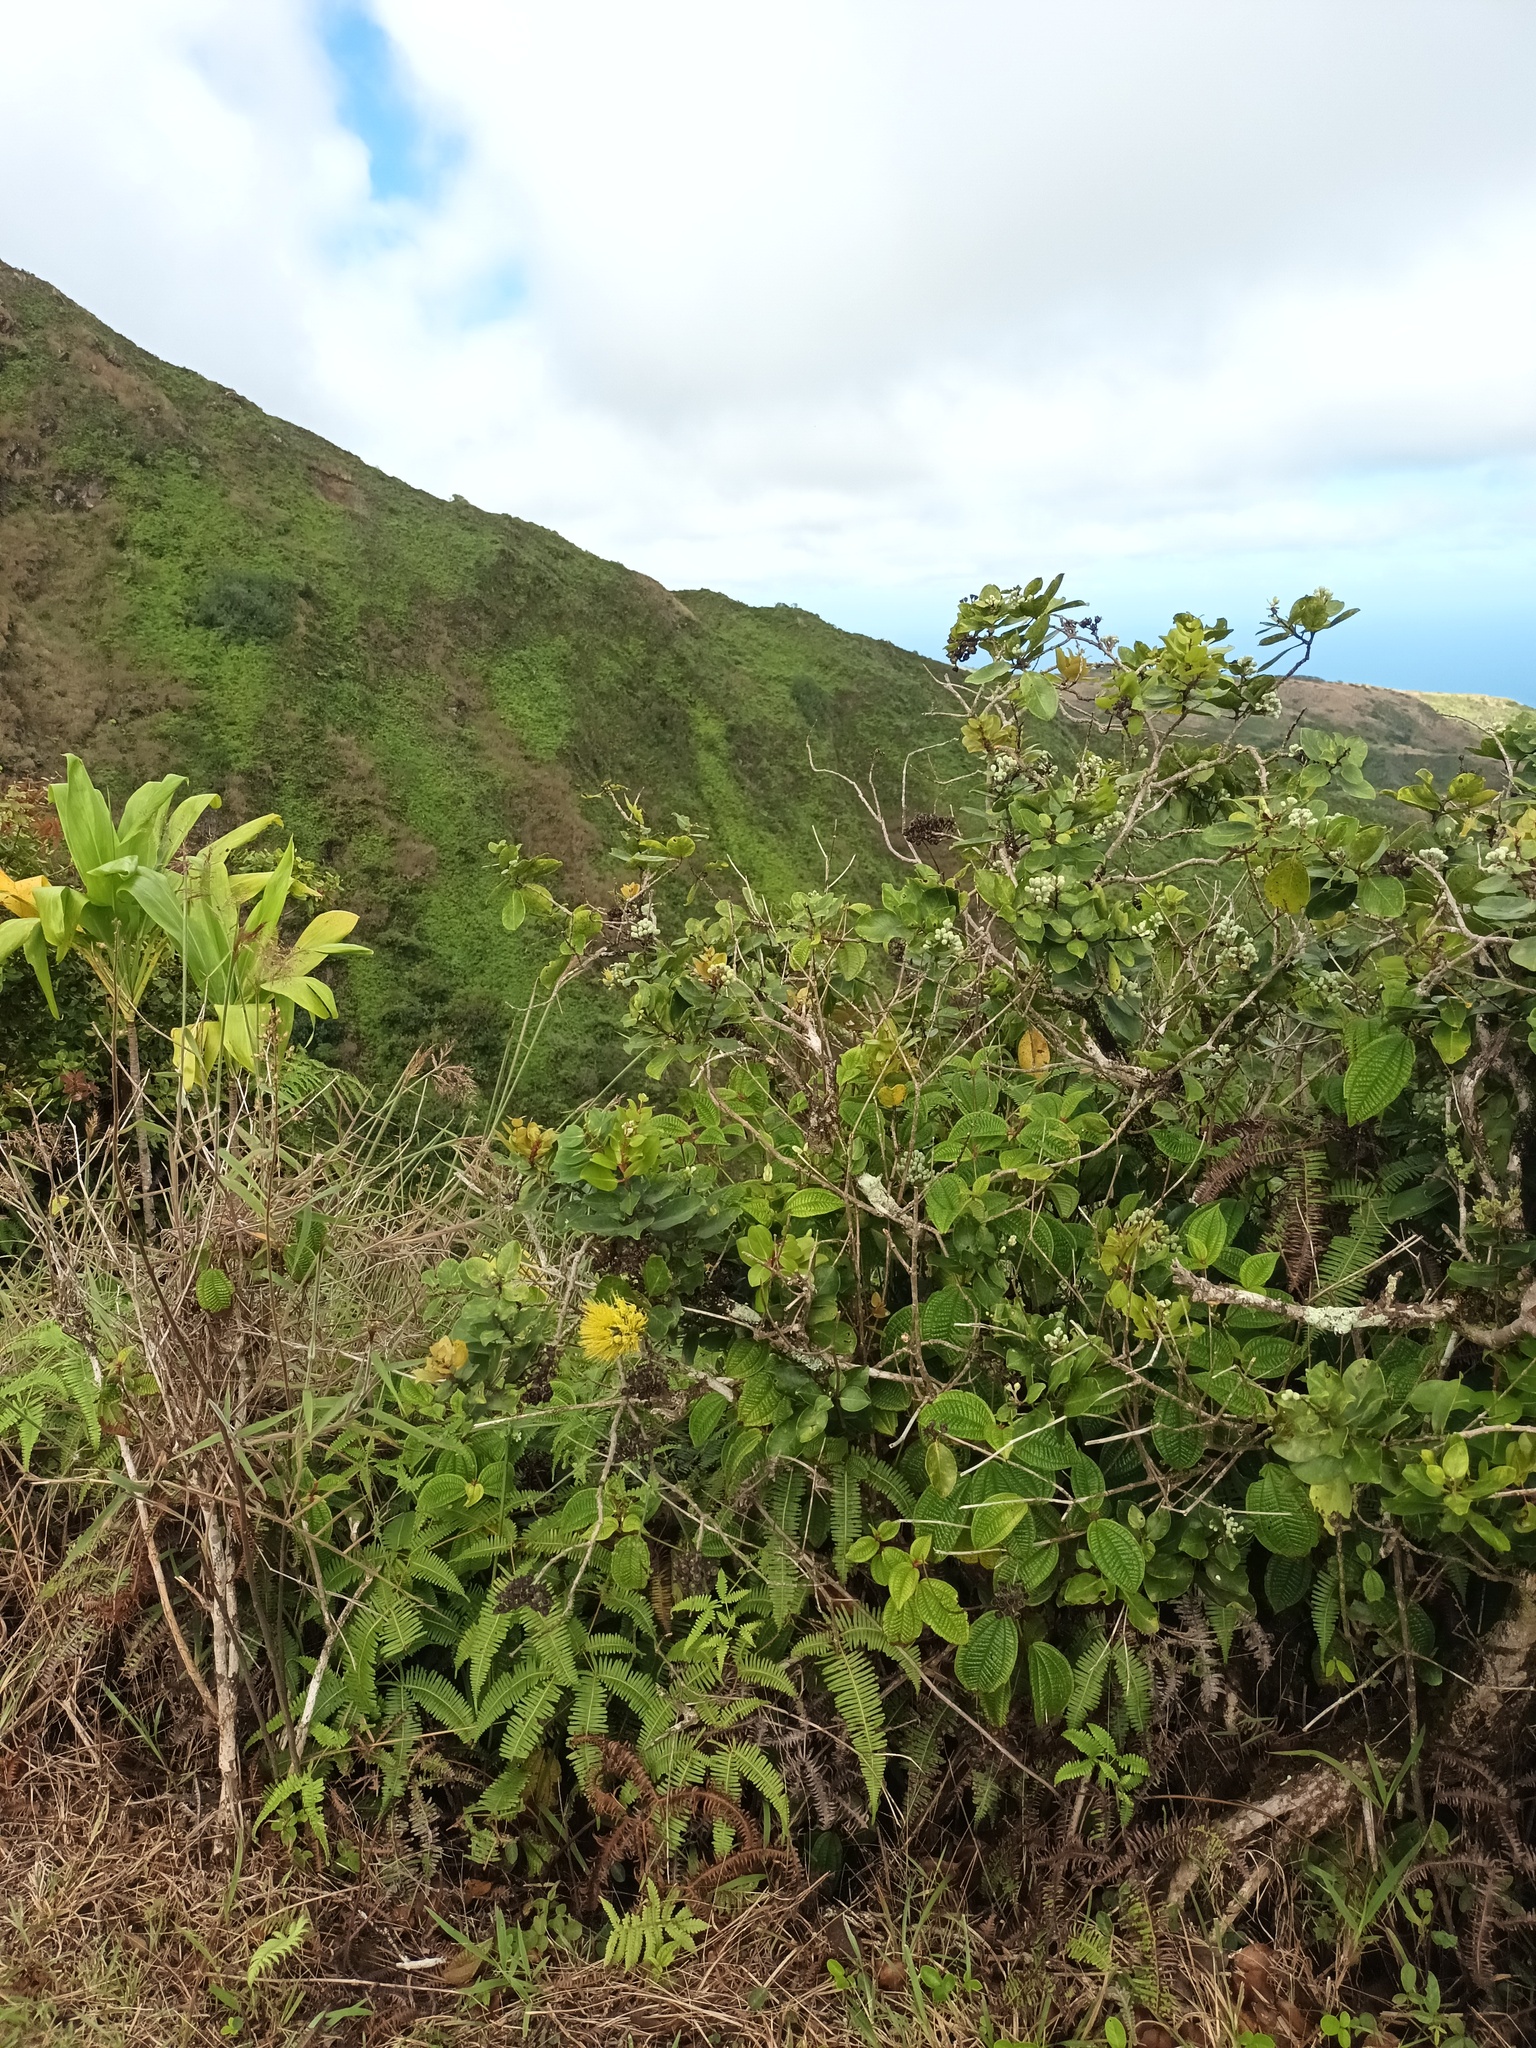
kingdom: Plantae
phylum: Tracheophyta
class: Magnoliopsida
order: Myrtales
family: Myrtaceae
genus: Metrosideros
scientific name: Metrosideros polymorpha
